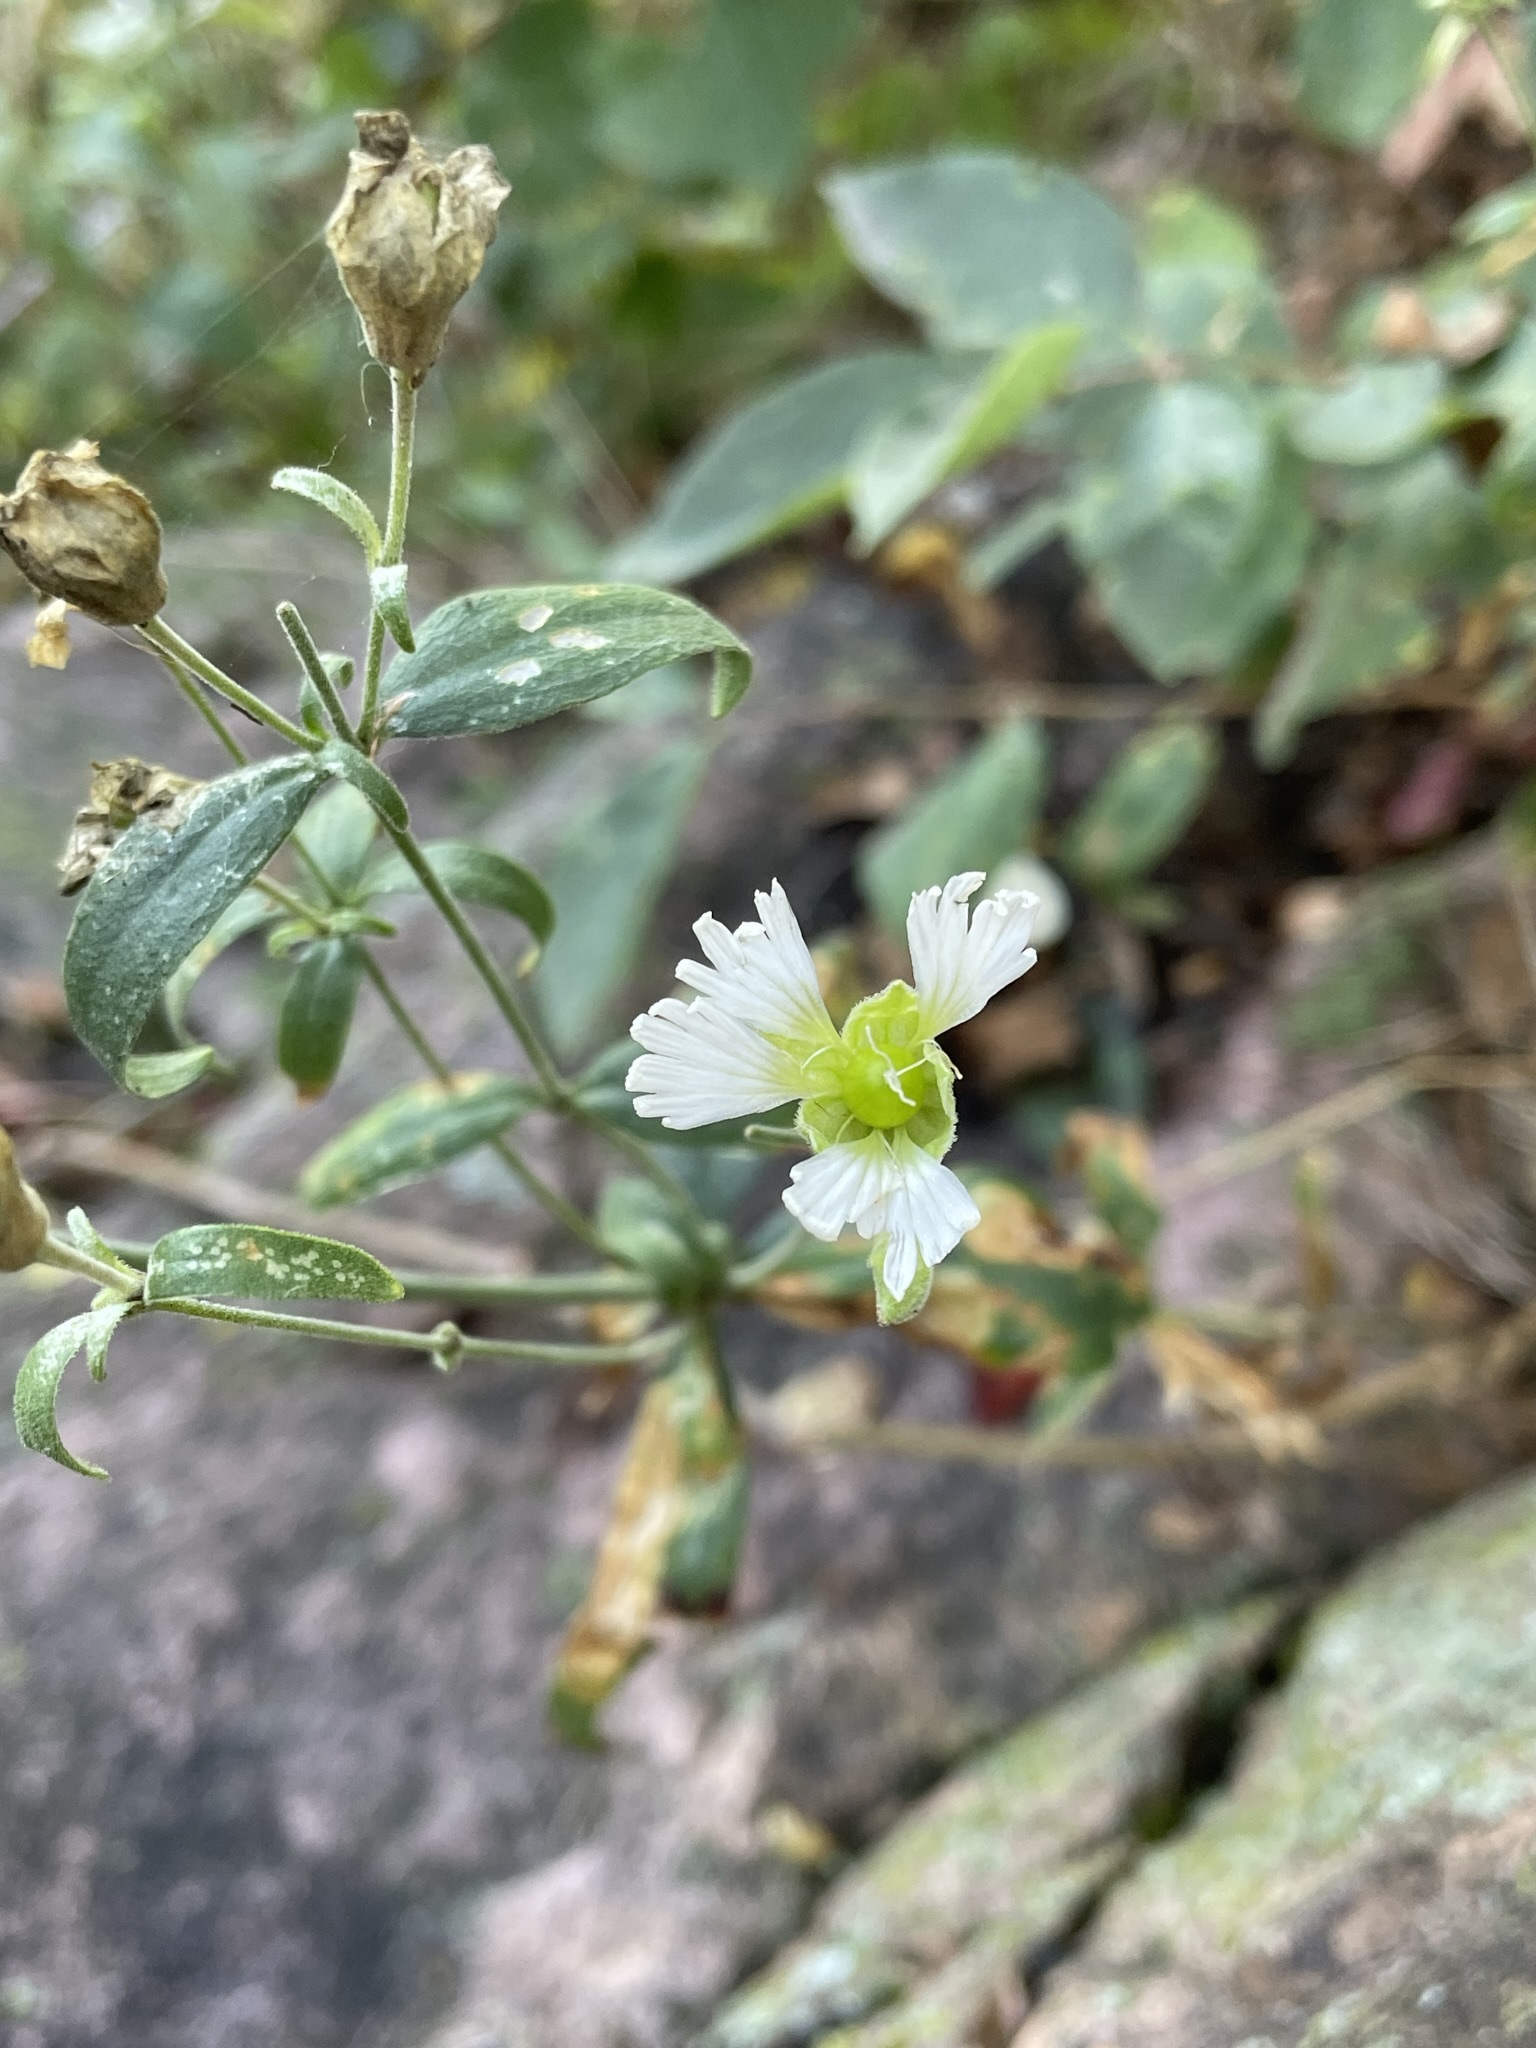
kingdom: Plantae
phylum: Tracheophyta
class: Magnoliopsida
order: Caryophyllales
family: Caryophyllaceae
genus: Silene
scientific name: Silene stellata
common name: Starry campion
